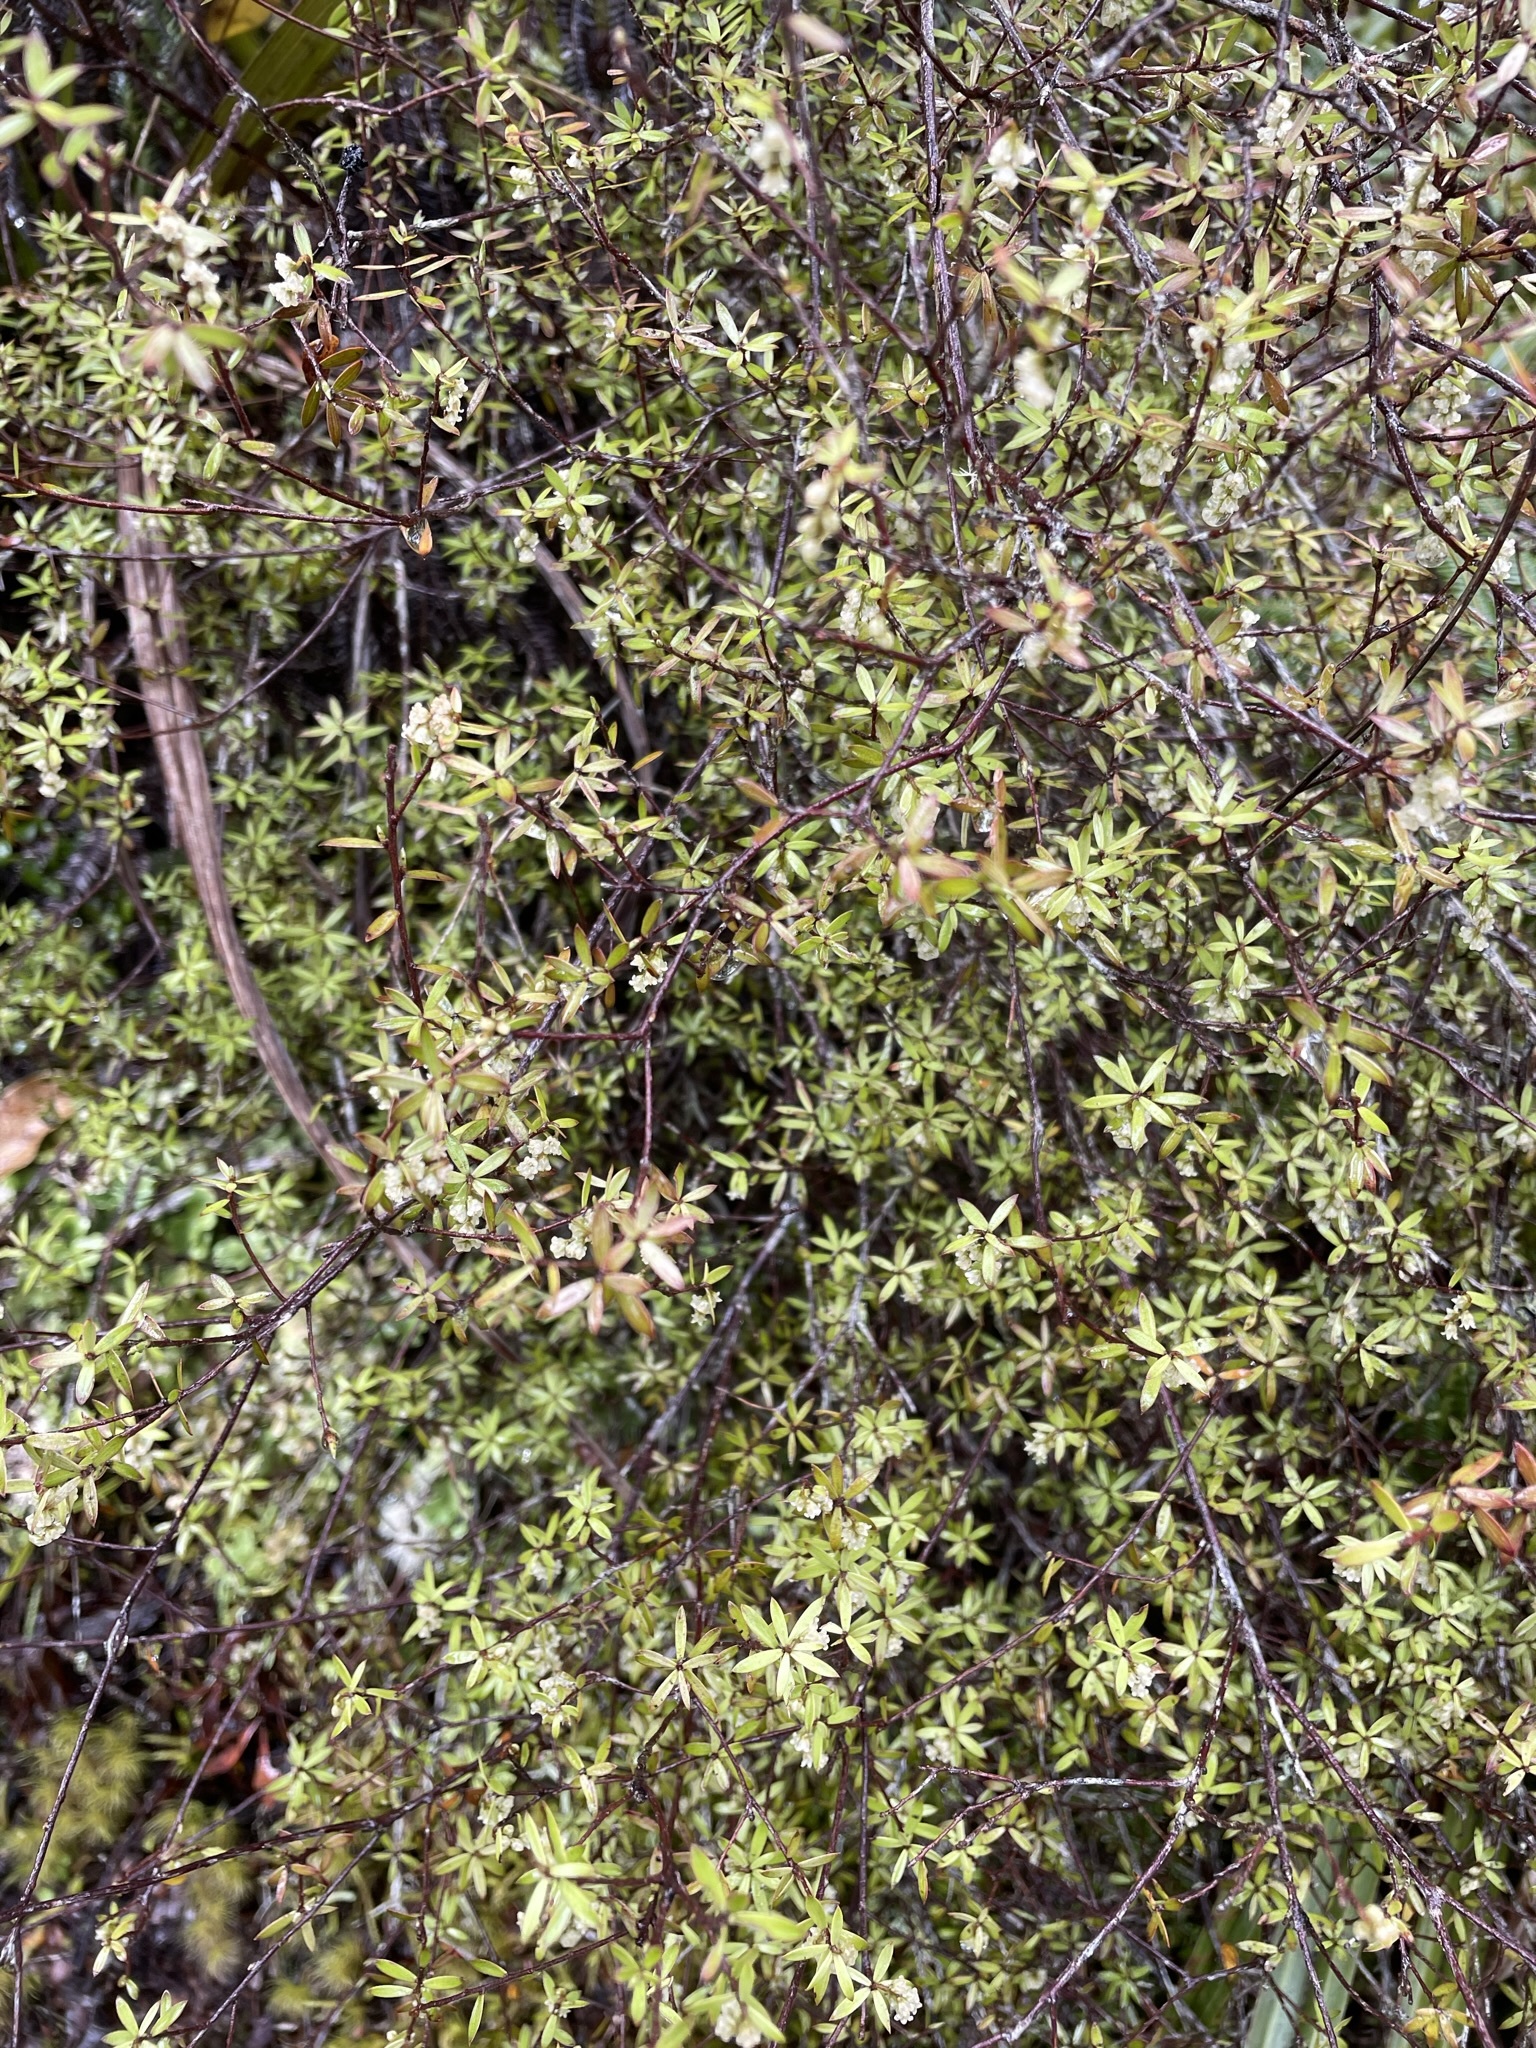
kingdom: Plantae
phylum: Tracheophyta
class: Magnoliopsida
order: Ericales
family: Ericaceae
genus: Leucopogon
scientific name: Leucopogon fasciculatus
